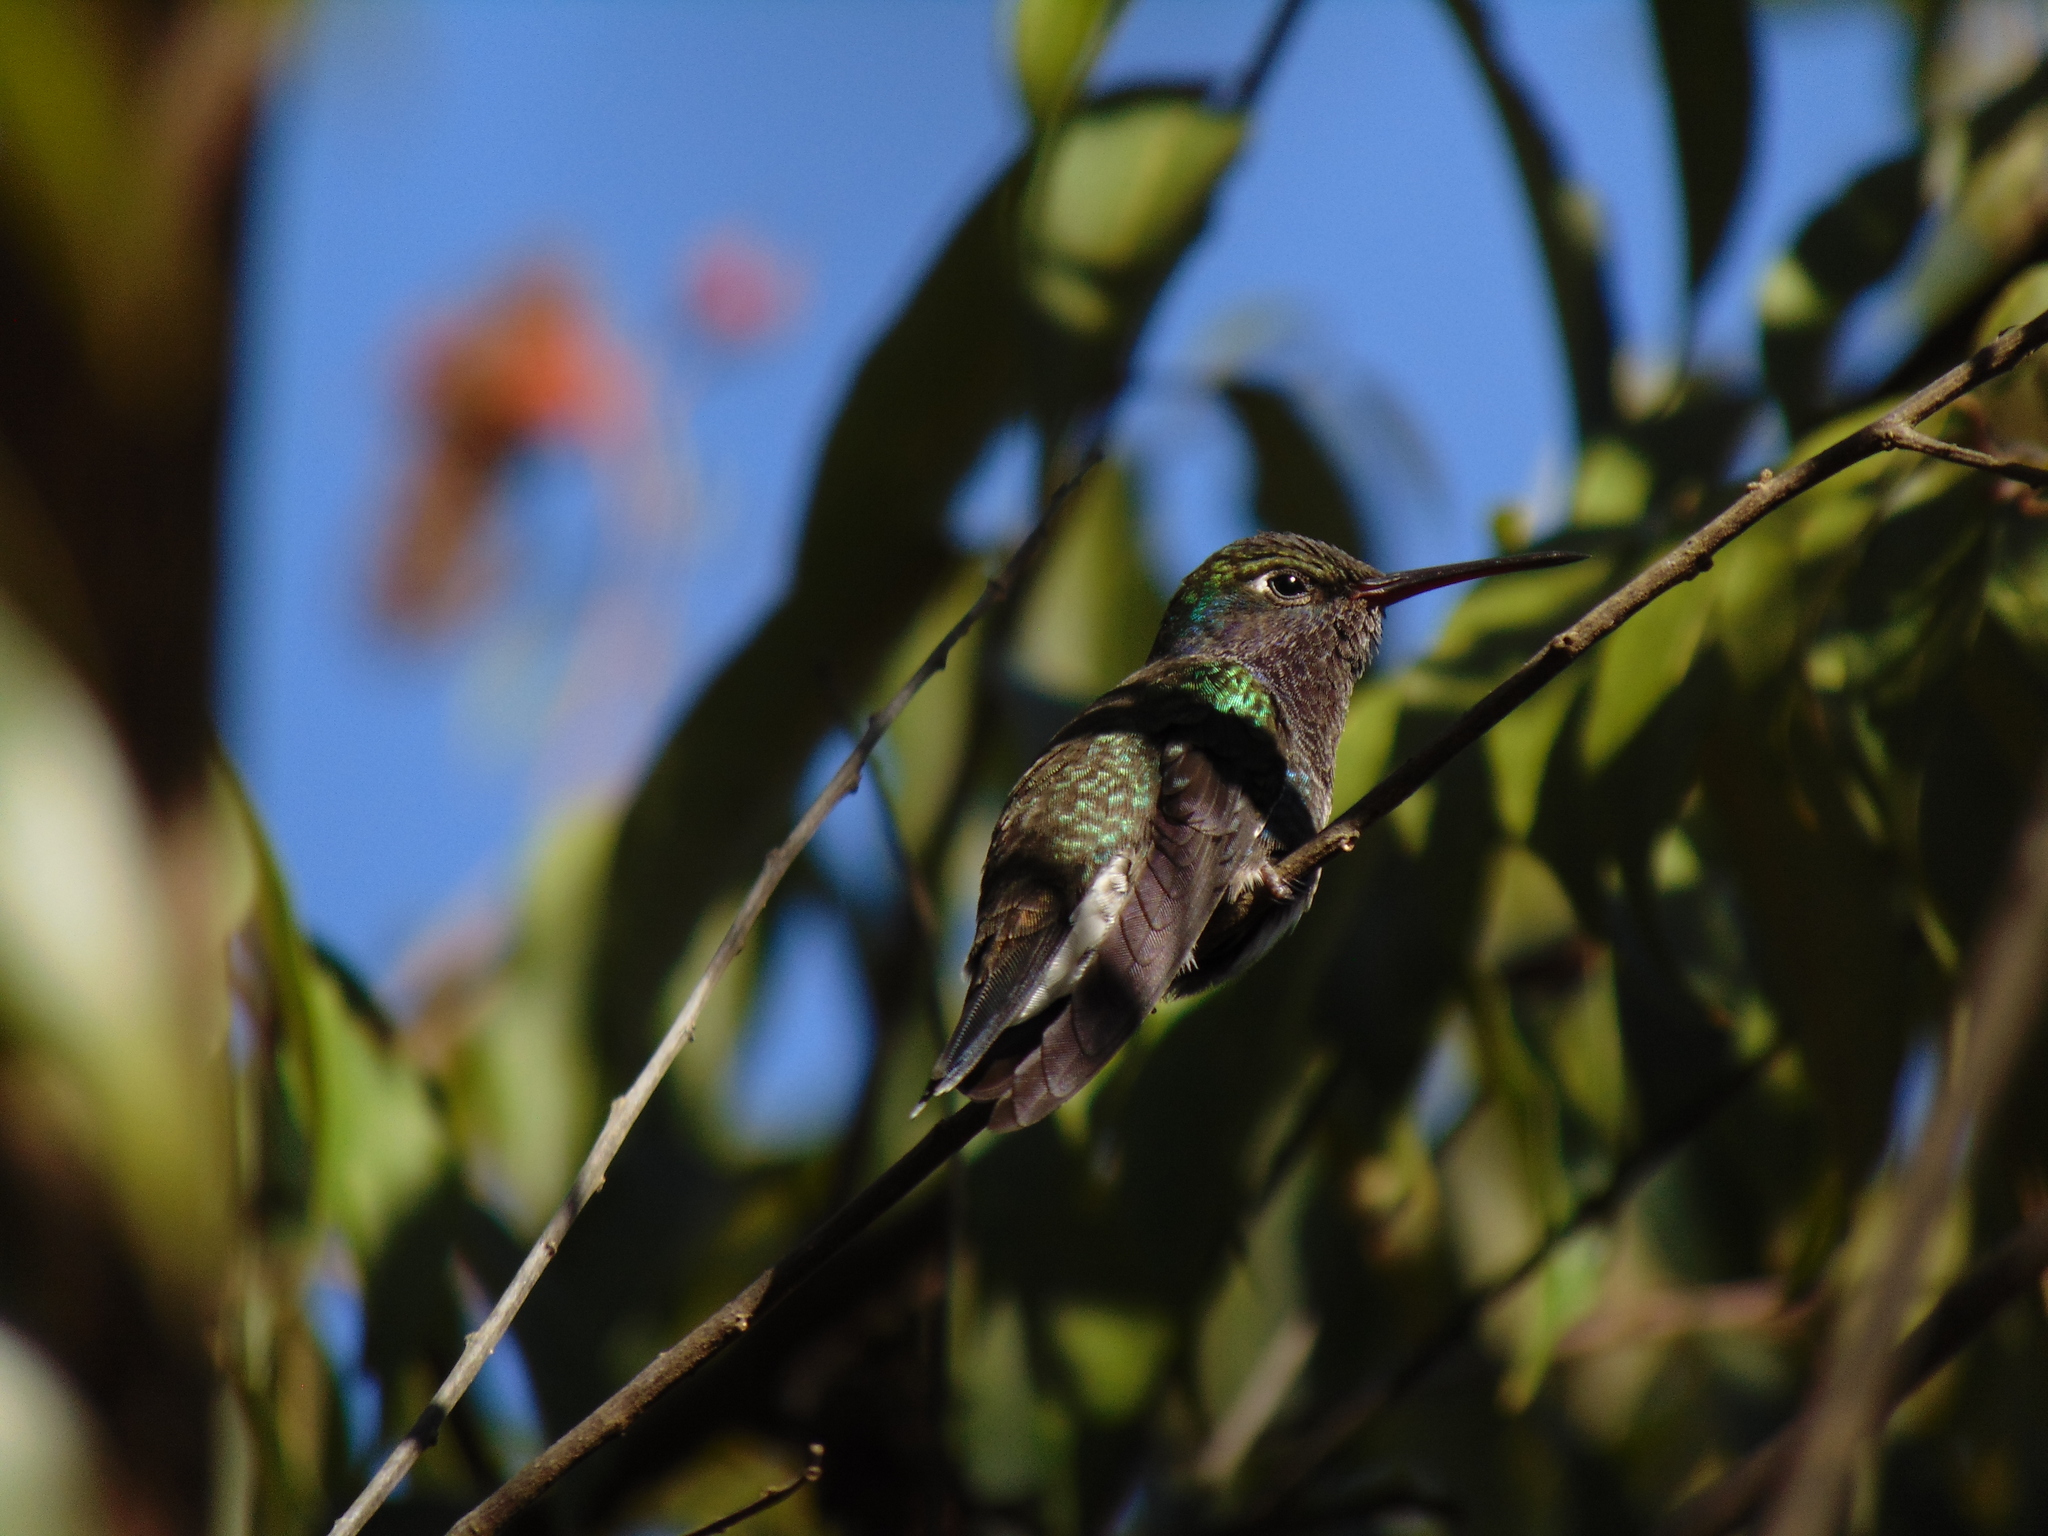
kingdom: Animalia
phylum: Chordata
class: Aves
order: Apodiformes
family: Trochilidae
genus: Chionomesa
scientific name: Chionomesa lactea
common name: Sapphire-spangled emerald
